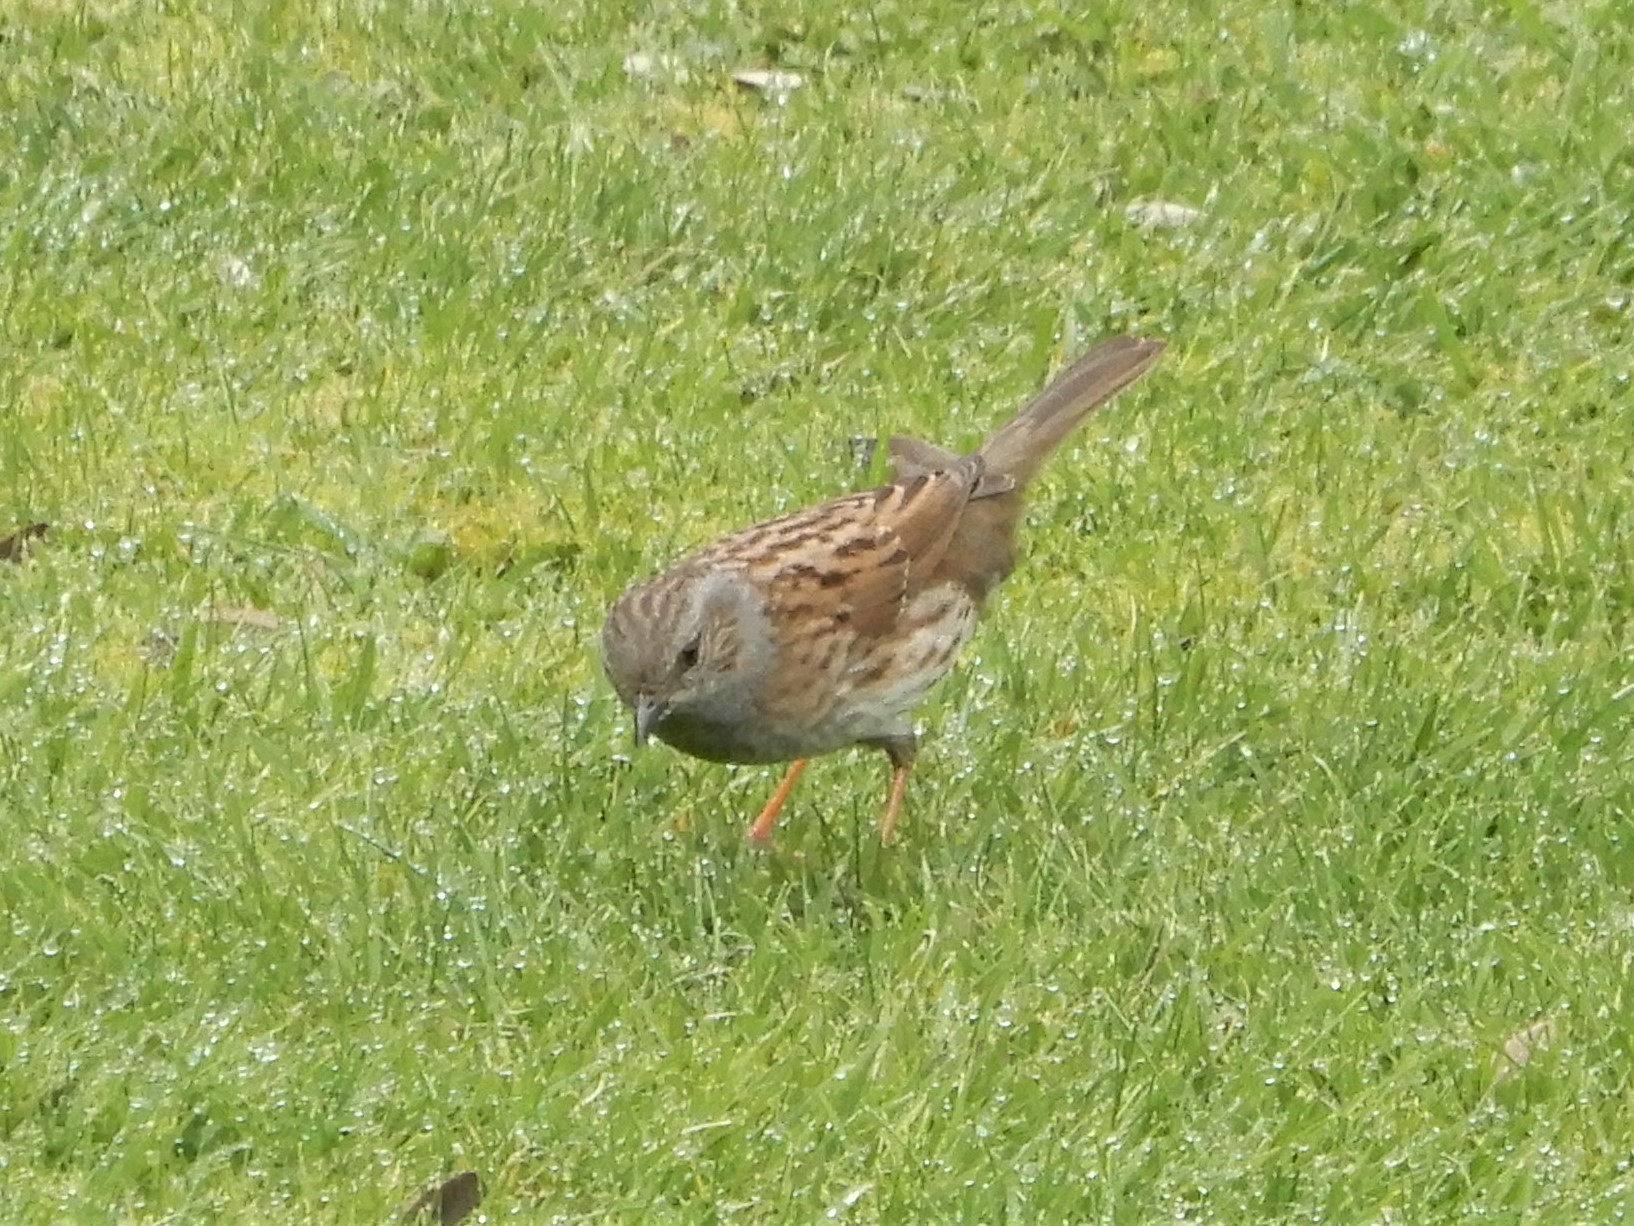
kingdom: Animalia
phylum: Chordata
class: Aves
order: Passeriformes
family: Prunellidae
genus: Prunella
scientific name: Prunella modularis
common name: Dunnock
